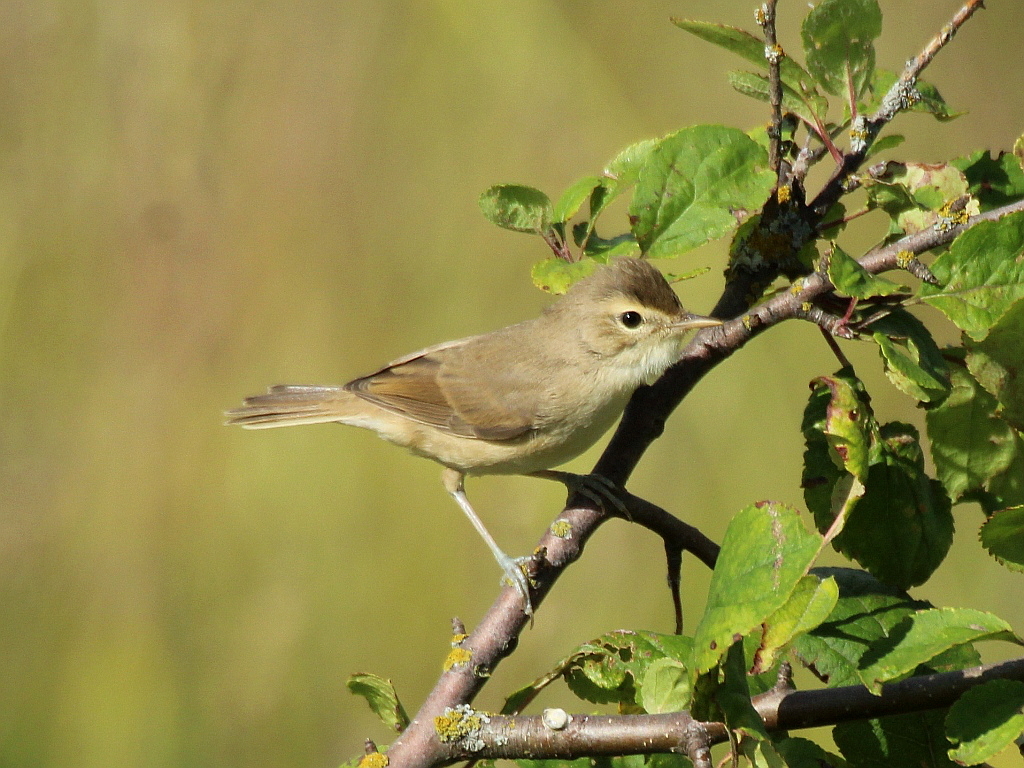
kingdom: Animalia
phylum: Chordata
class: Aves
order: Passeriformes
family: Acrocephalidae
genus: Iduna
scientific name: Iduna caligata
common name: Booted warbler
